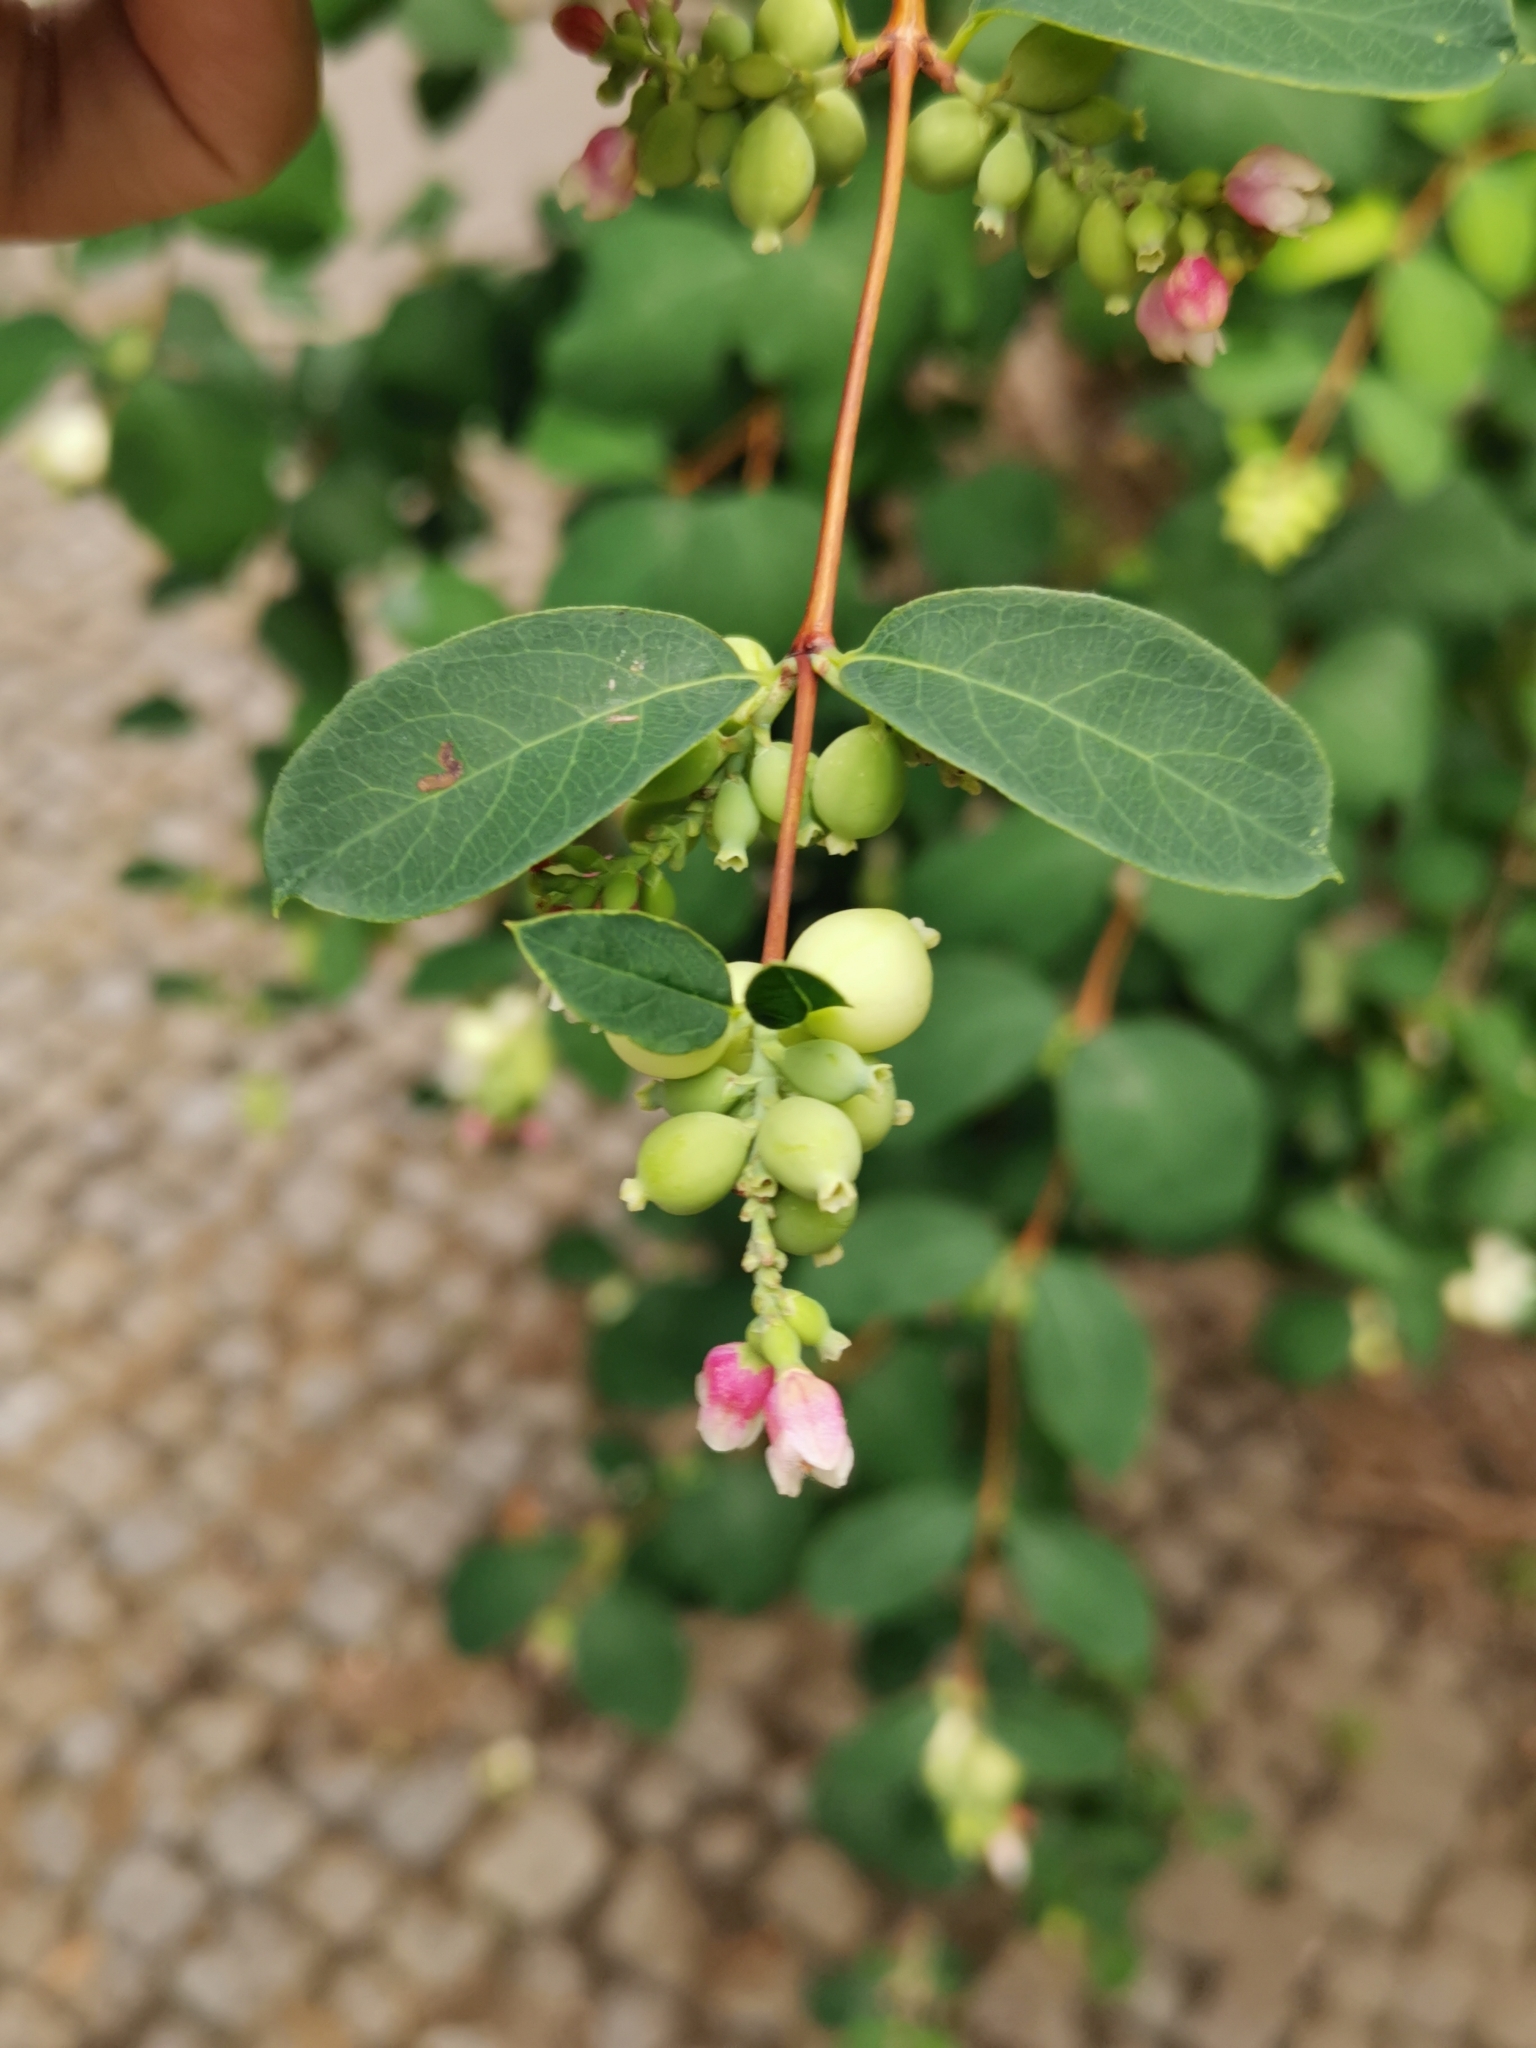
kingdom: Plantae
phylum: Tracheophyta
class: Magnoliopsida
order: Dipsacales
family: Caprifoliaceae
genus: Symphoricarpos
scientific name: Symphoricarpos albus
